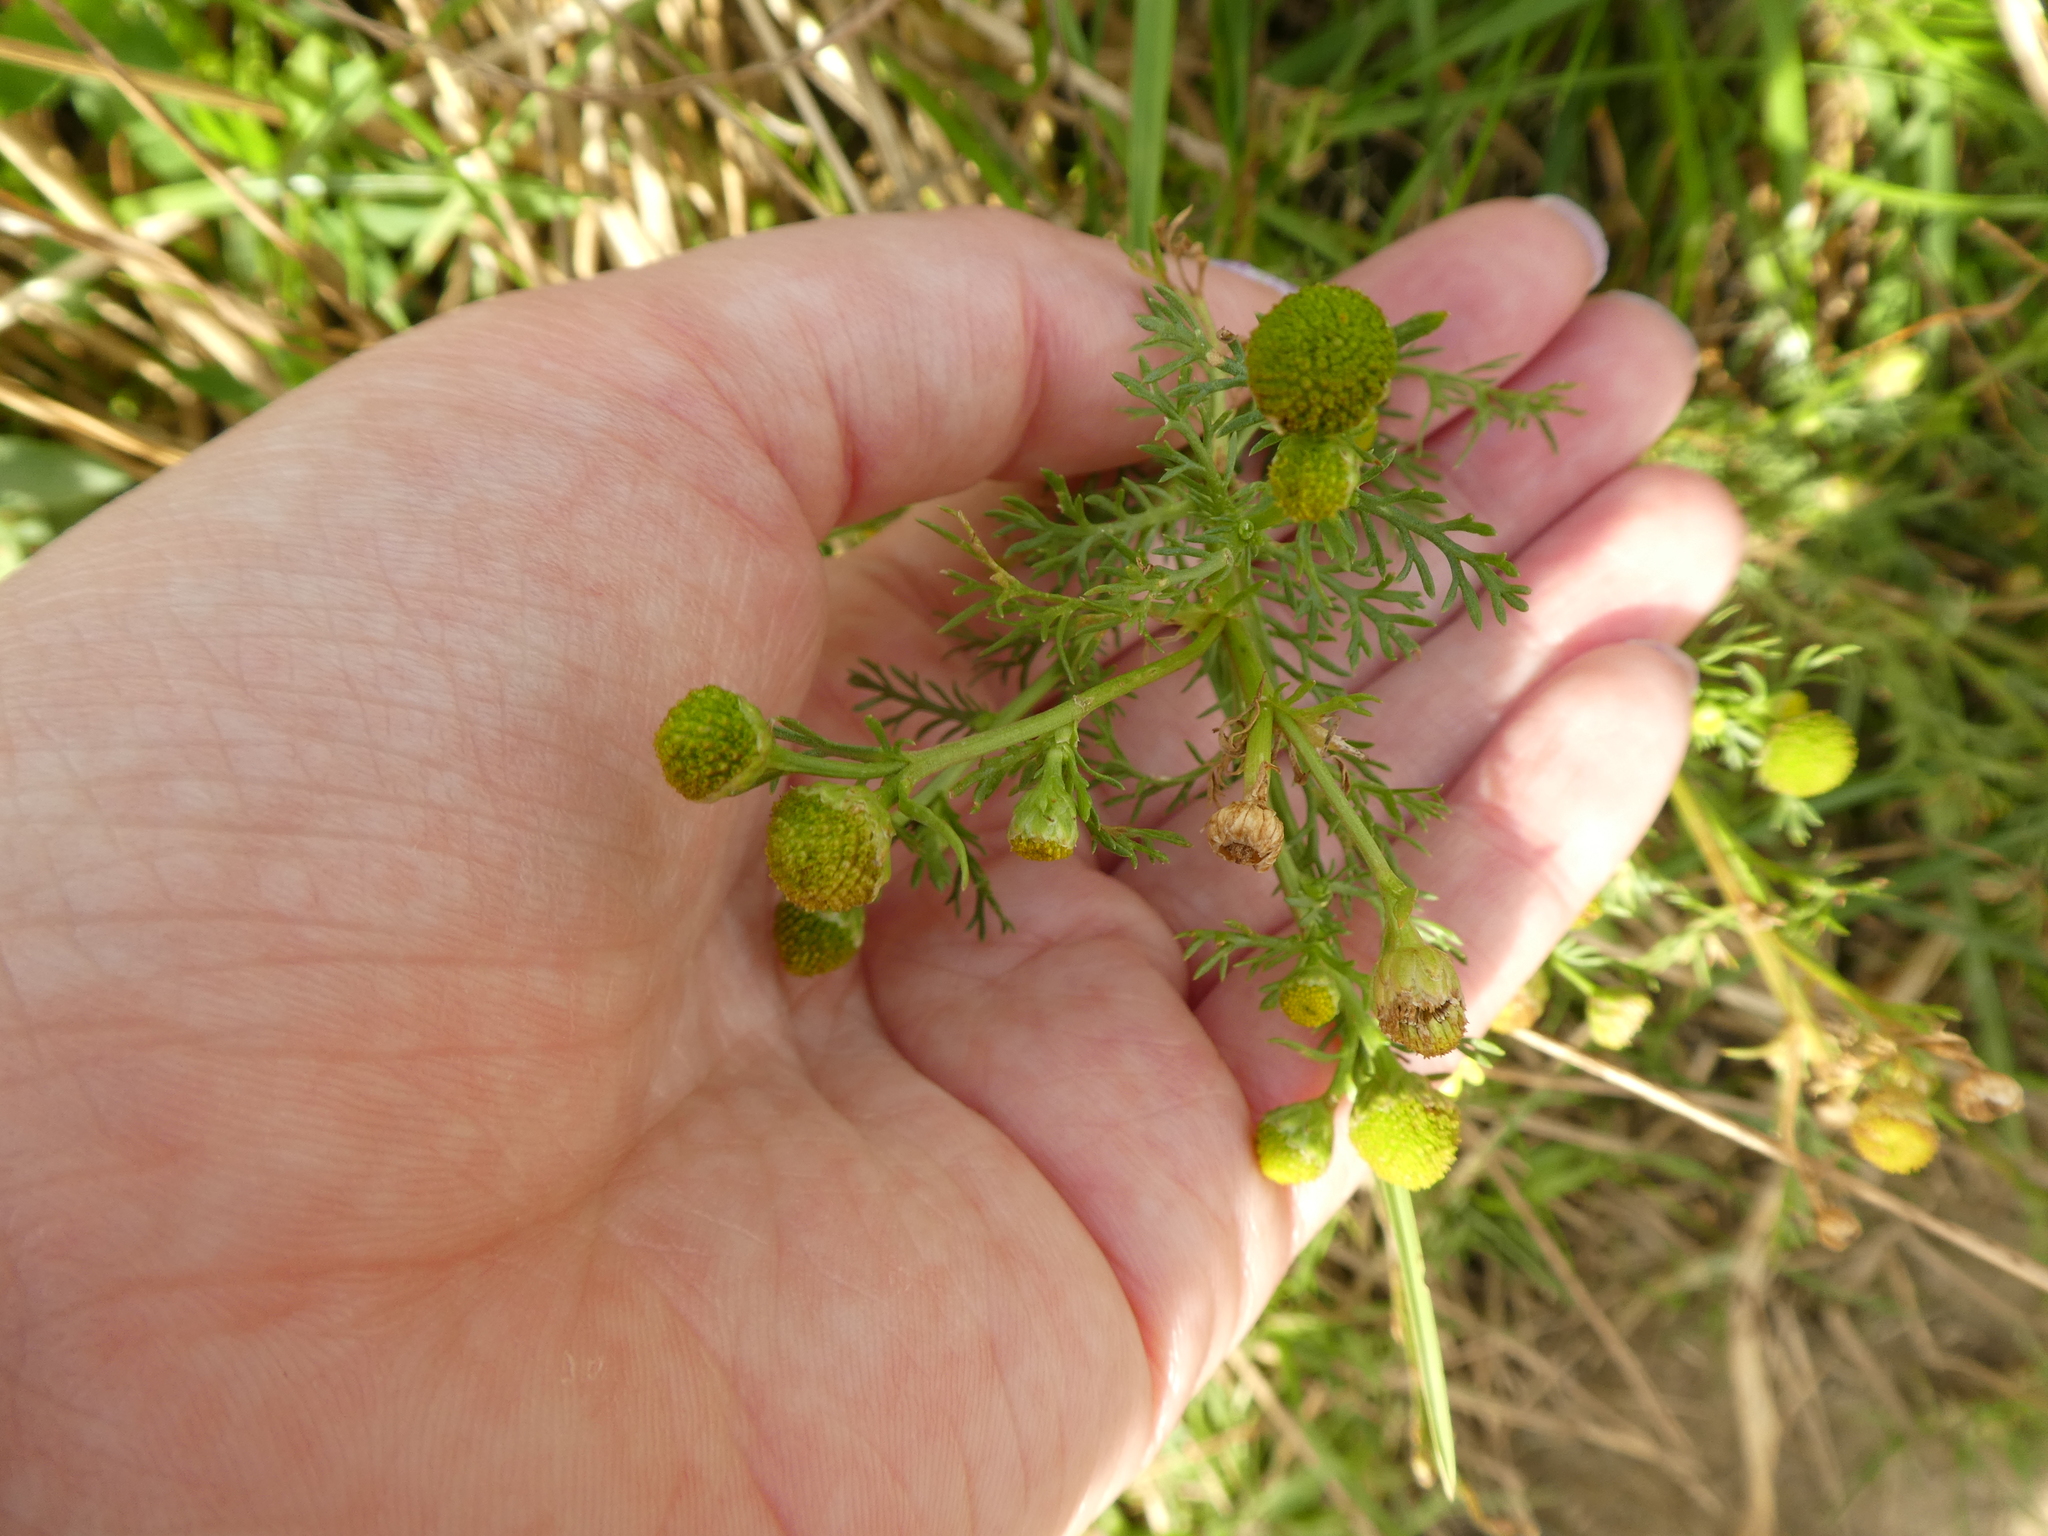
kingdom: Plantae
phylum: Tracheophyta
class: Magnoliopsida
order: Asterales
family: Asteraceae
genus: Matricaria
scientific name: Matricaria discoidea
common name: Disc mayweed
